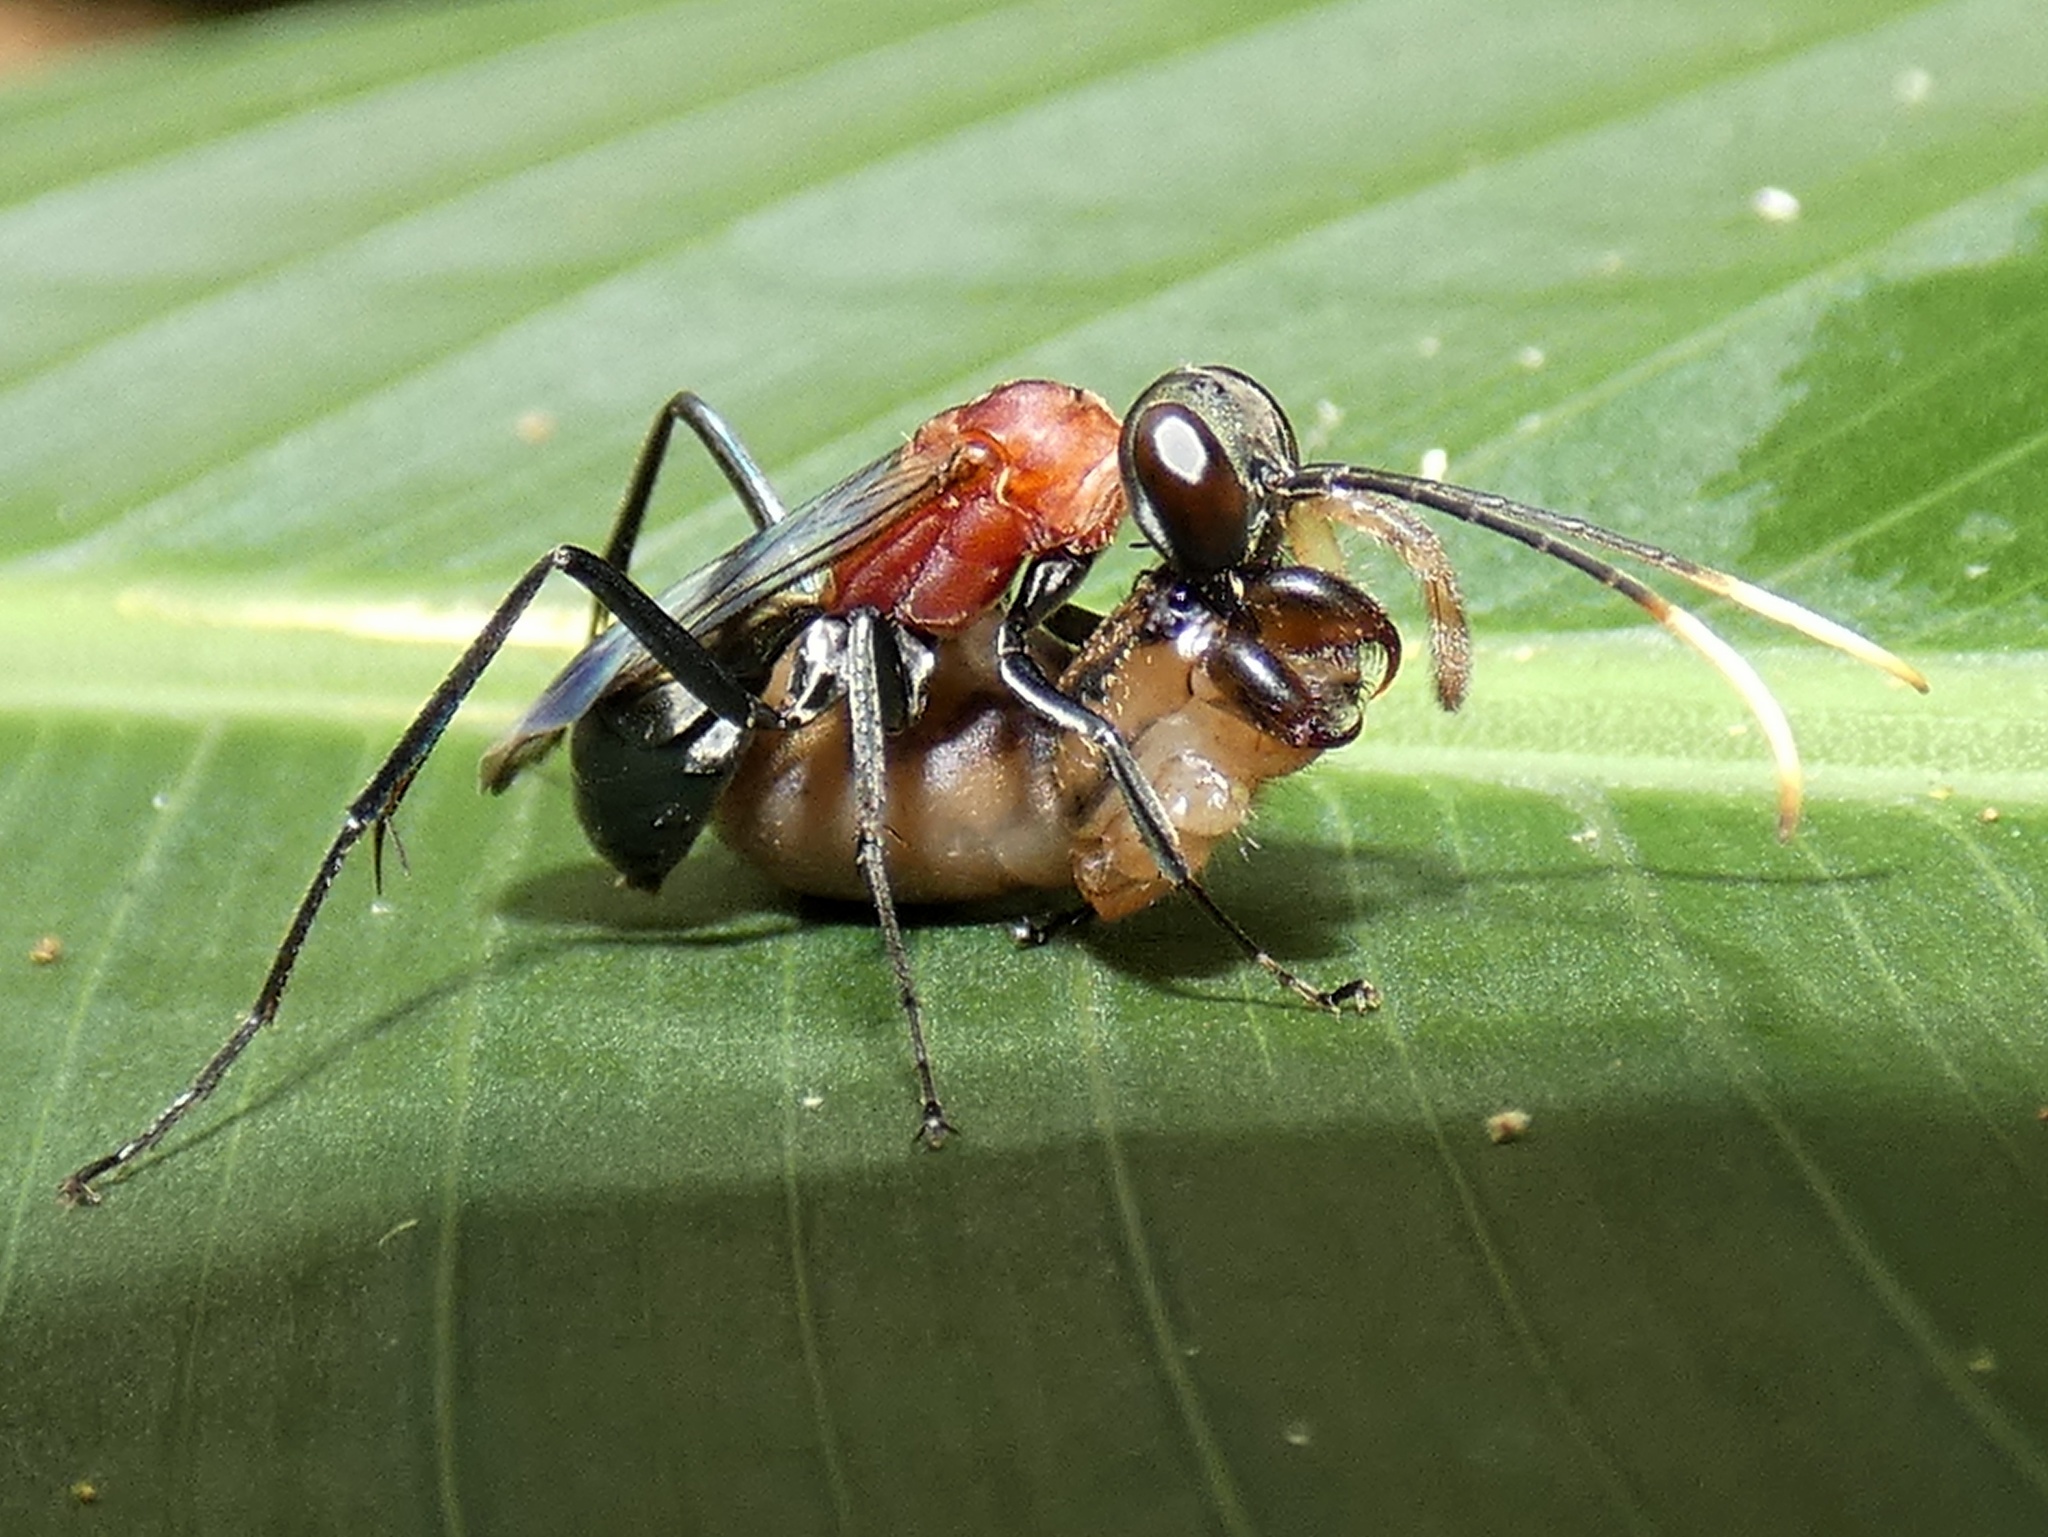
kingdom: Animalia
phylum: Arthropoda
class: Insecta
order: Hymenoptera
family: Pompilidae
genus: Eragenia
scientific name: Eragenia micans
